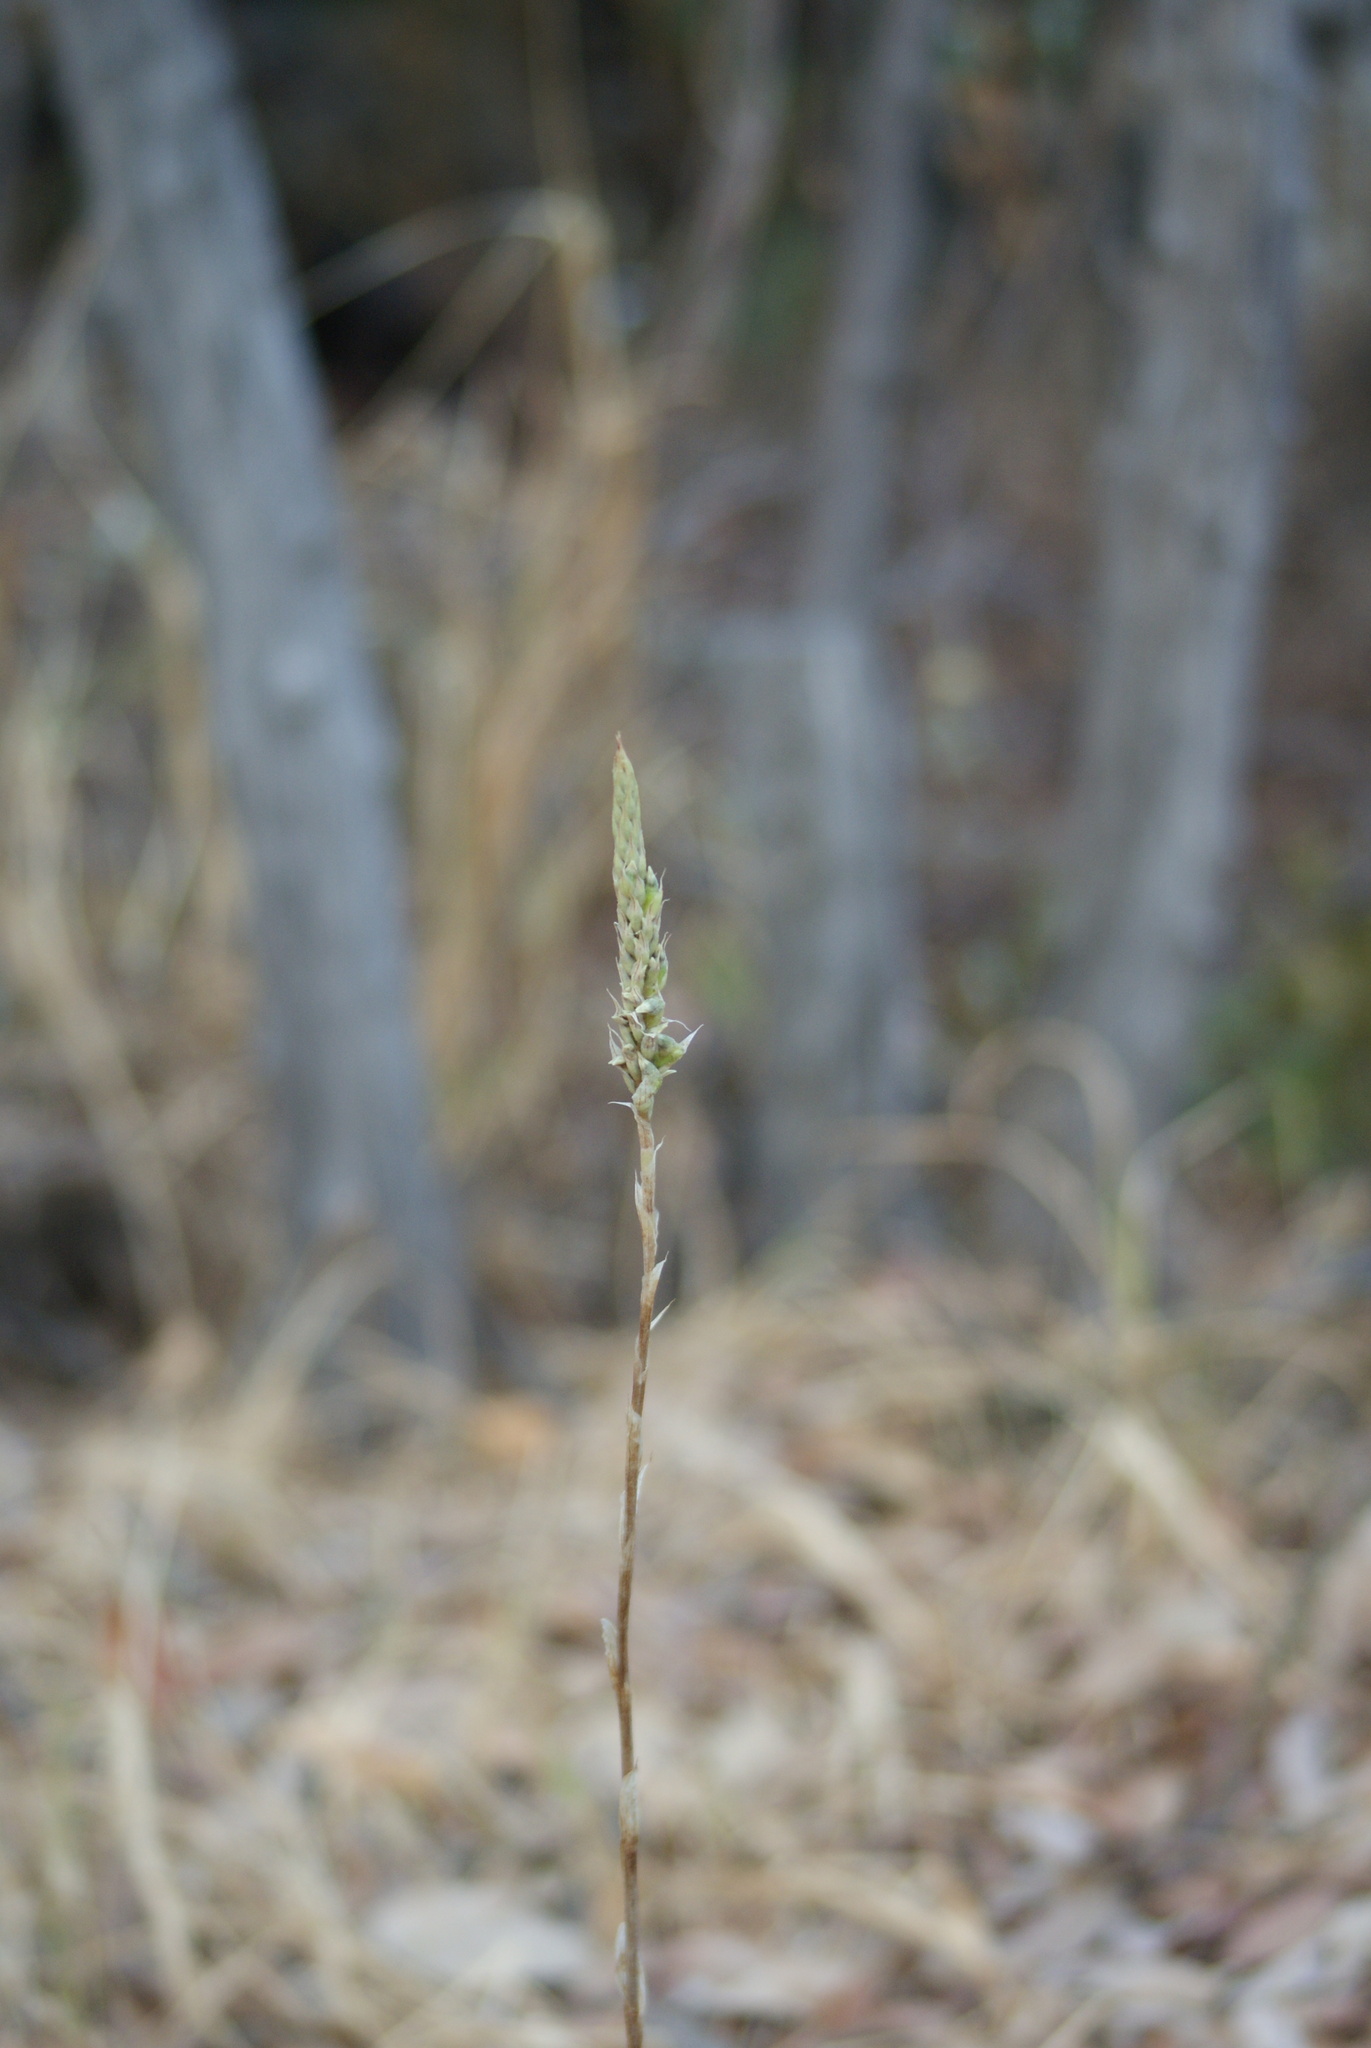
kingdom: Plantae
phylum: Tracheophyta
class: Liliopsida
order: Asparagales
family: Orchidaceae
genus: Aulosepalum
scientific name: Aulosepalum pyramidale
